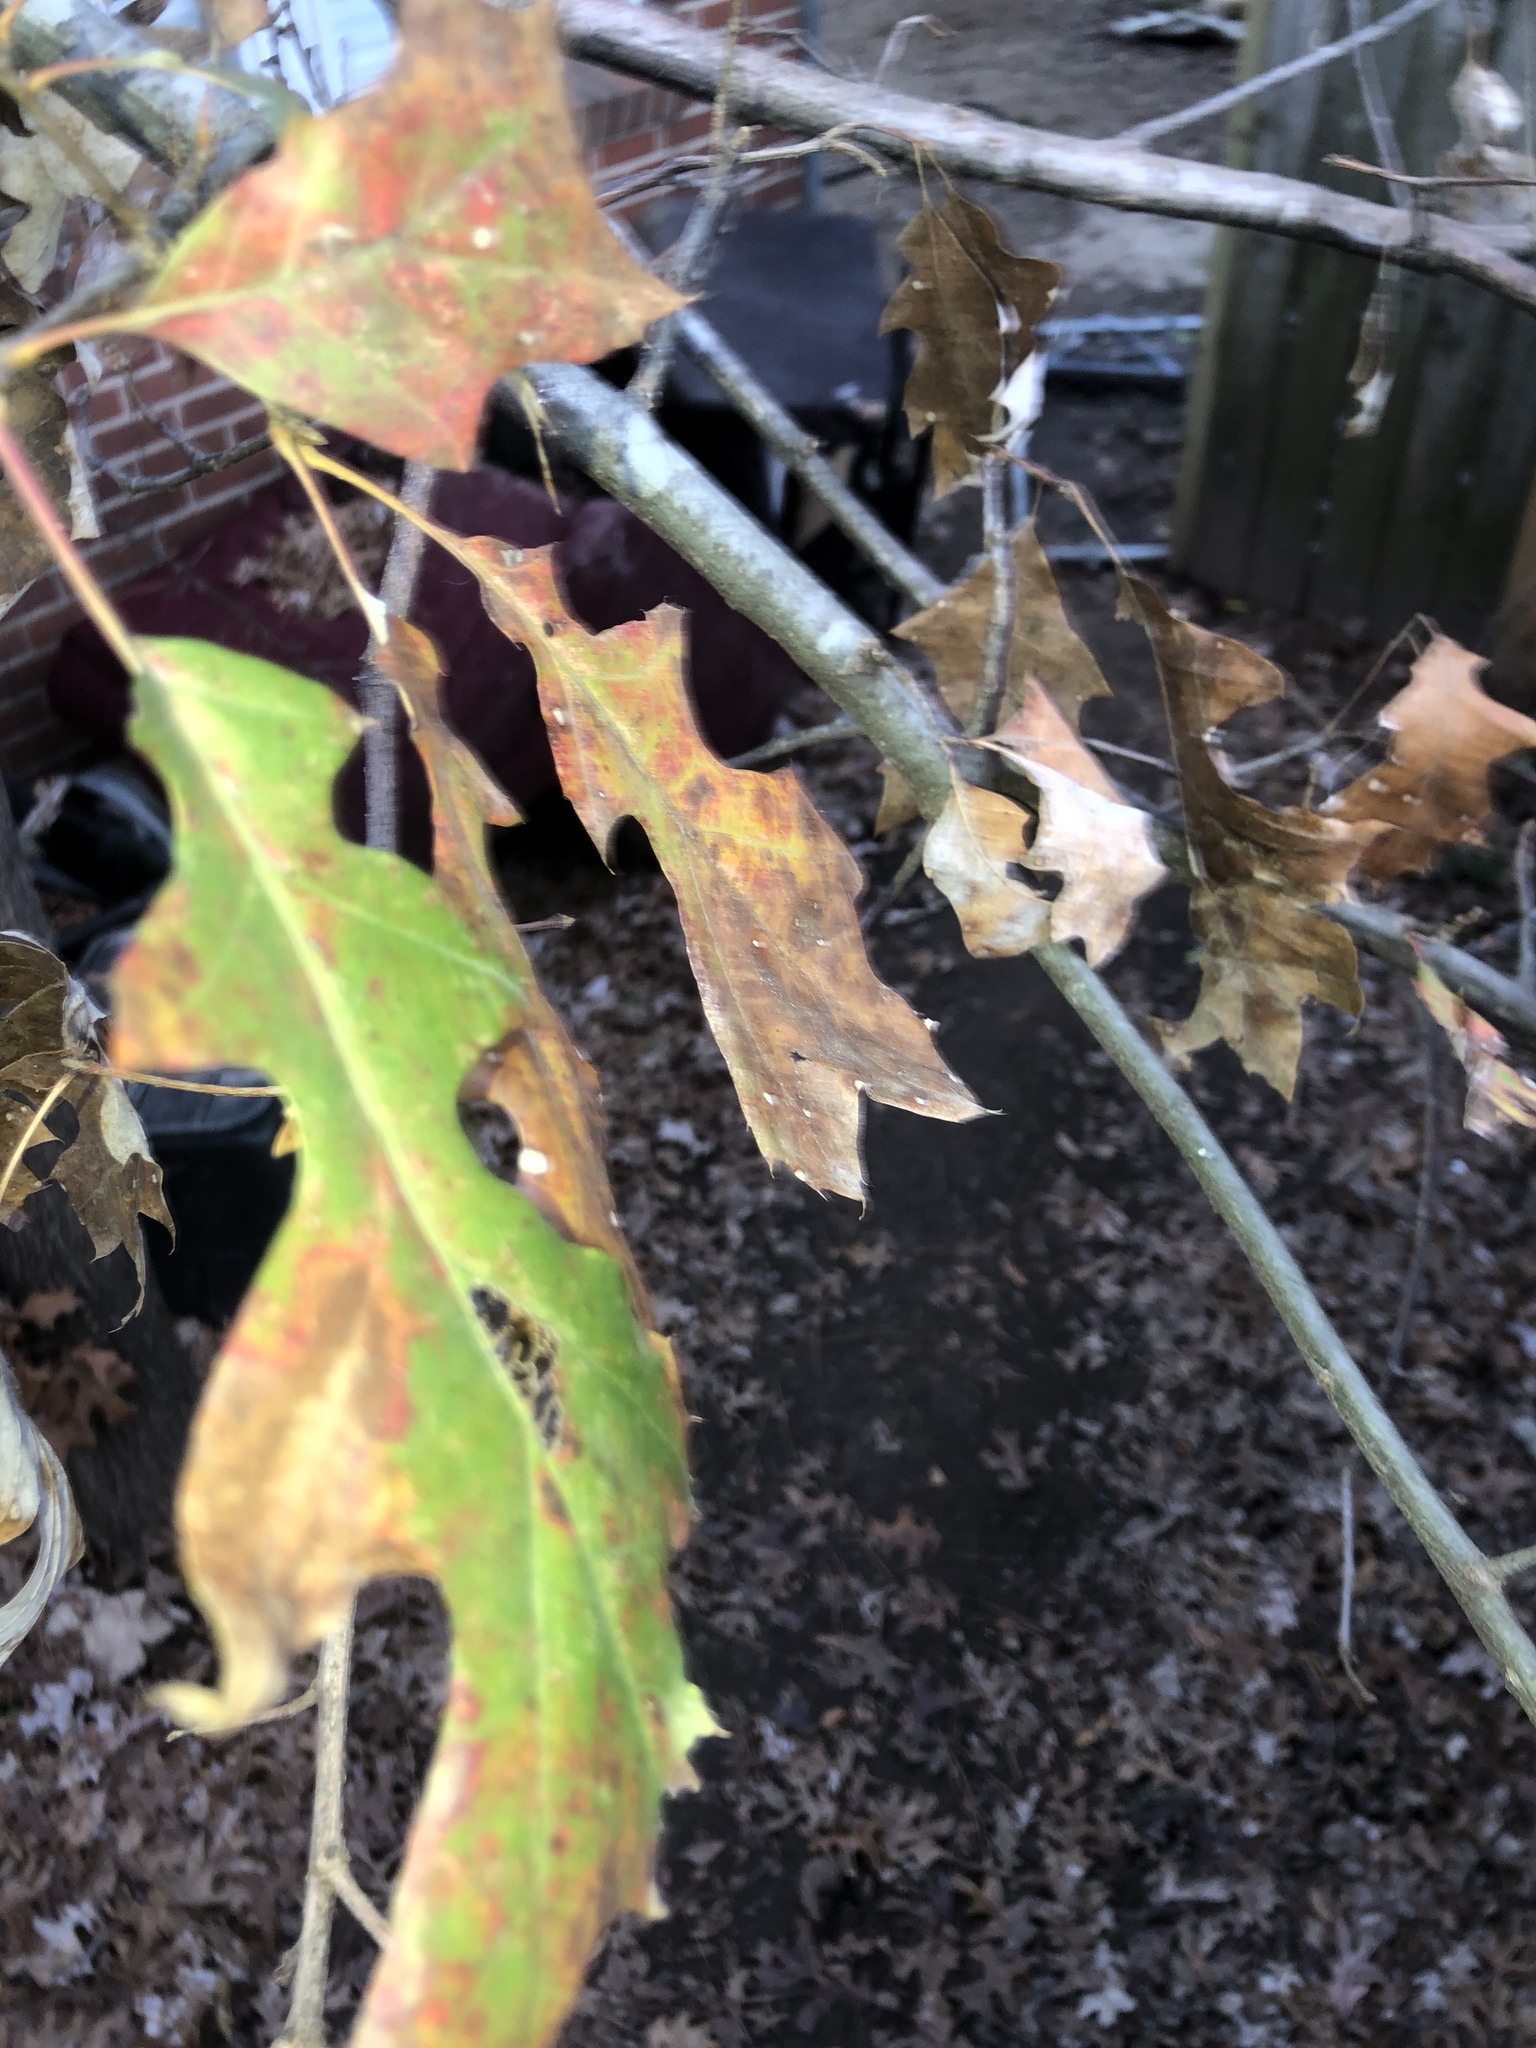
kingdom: Plantae
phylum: Tracheophyta
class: Magnoliopsida
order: Fagales
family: Fagaceae
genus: Quercus
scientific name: Quercus pagoda
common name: Cherrybark oak
